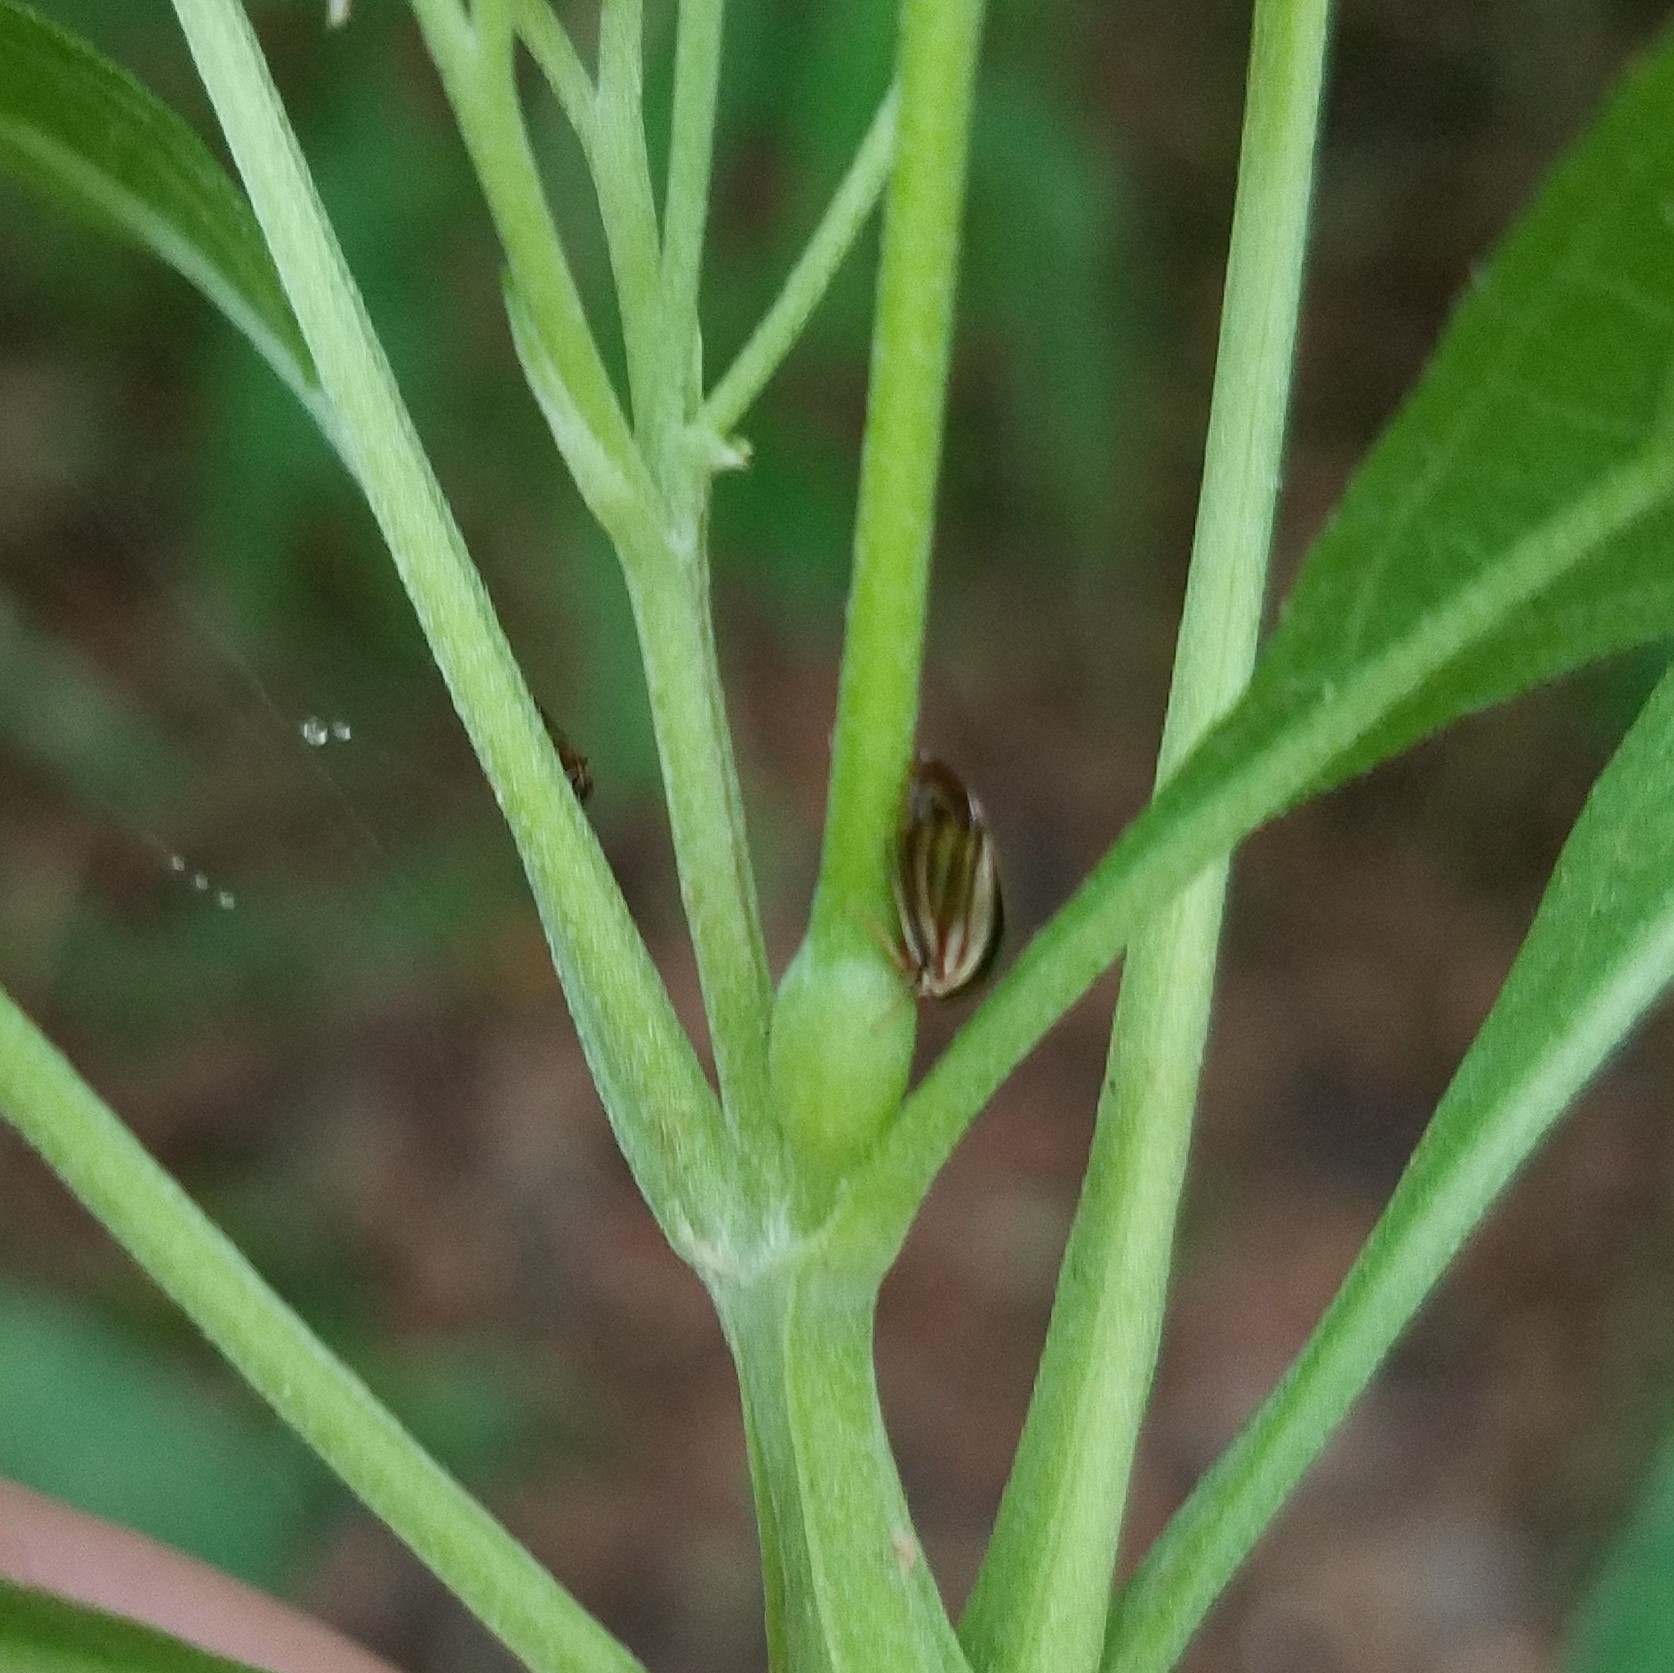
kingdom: Animalia
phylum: Arthropoda
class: Insecta
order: Hemiptera
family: Membracidae
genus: Acutalis
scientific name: Acutalis tartarea
